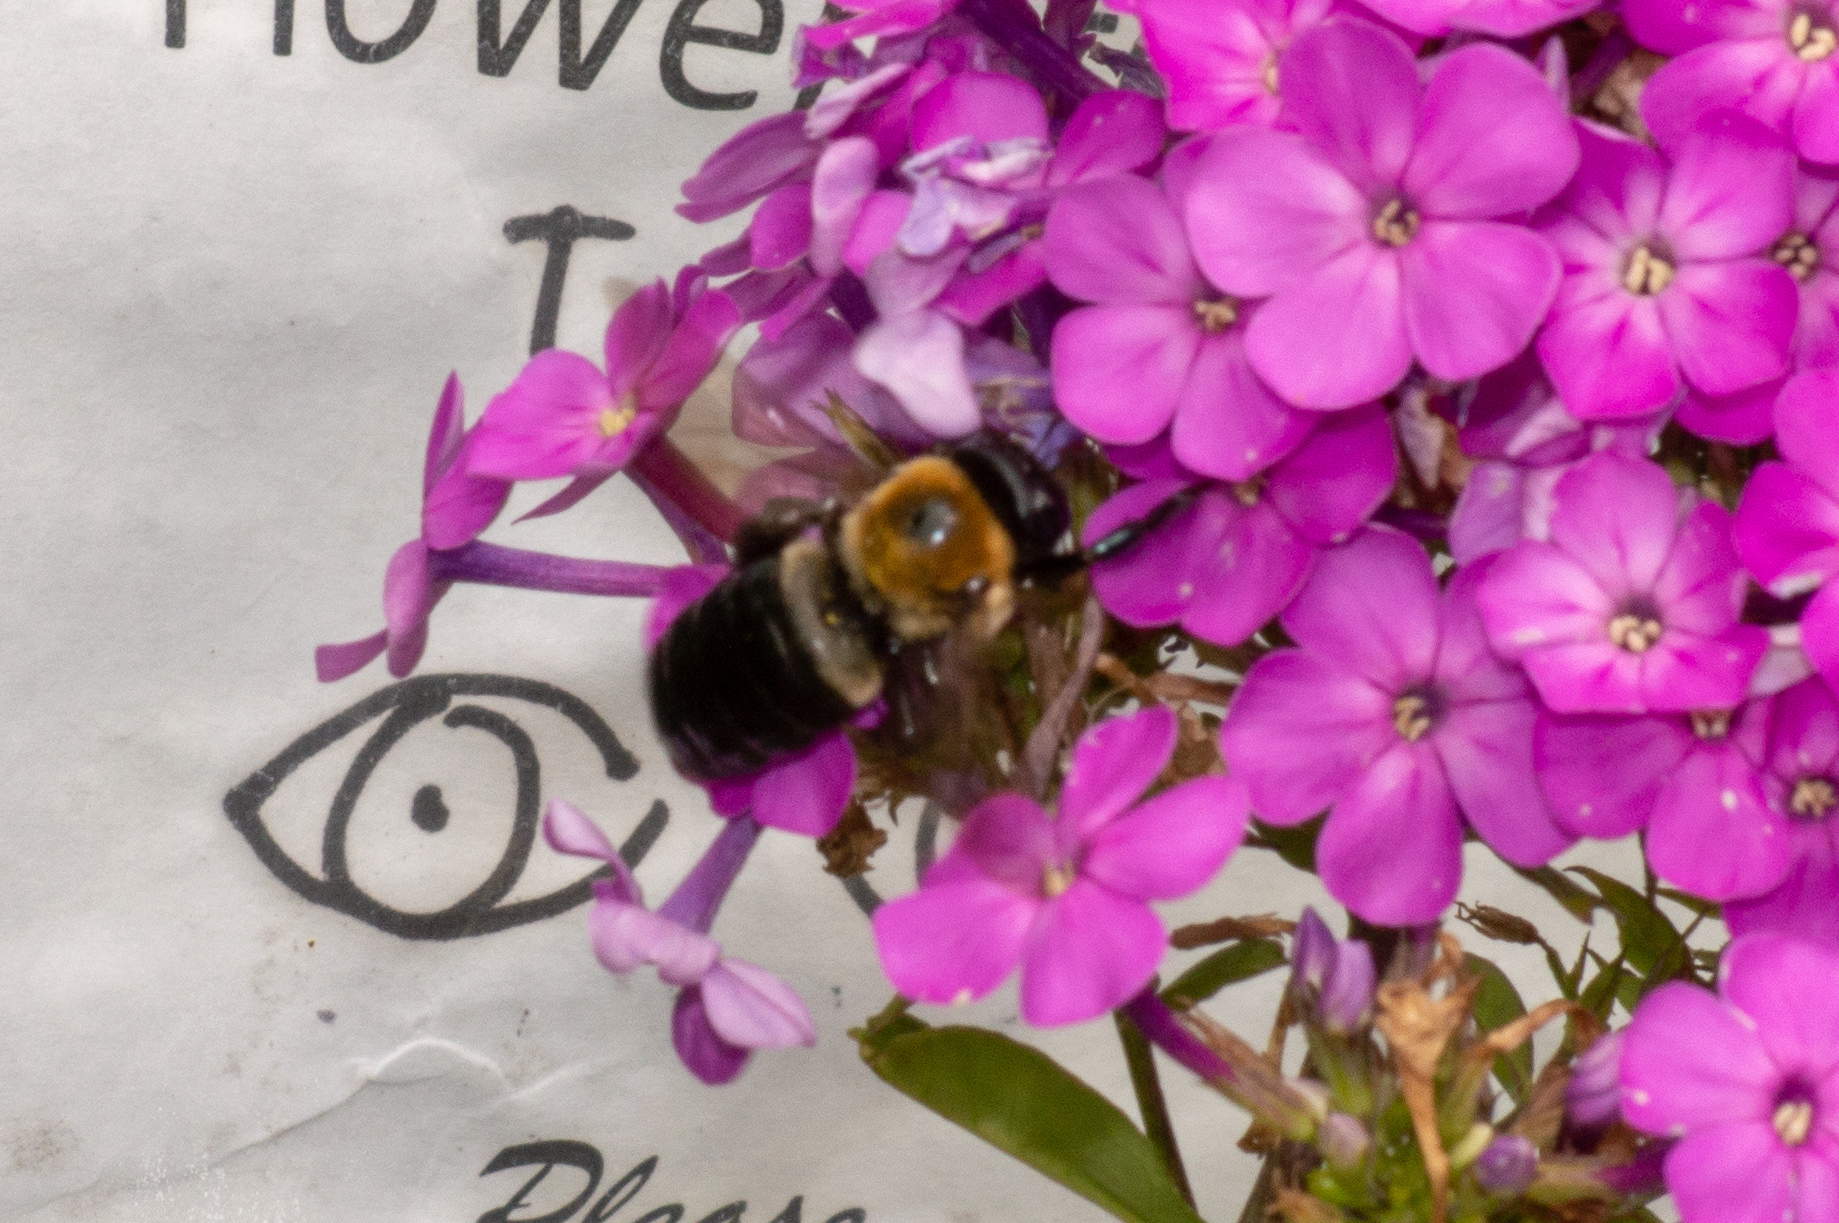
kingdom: Animalia
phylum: Arthropoda
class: Insecta
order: Hymenoptera
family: Apidae
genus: Xylocopa
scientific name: Xylocopa virginica
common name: Carpenter bee
